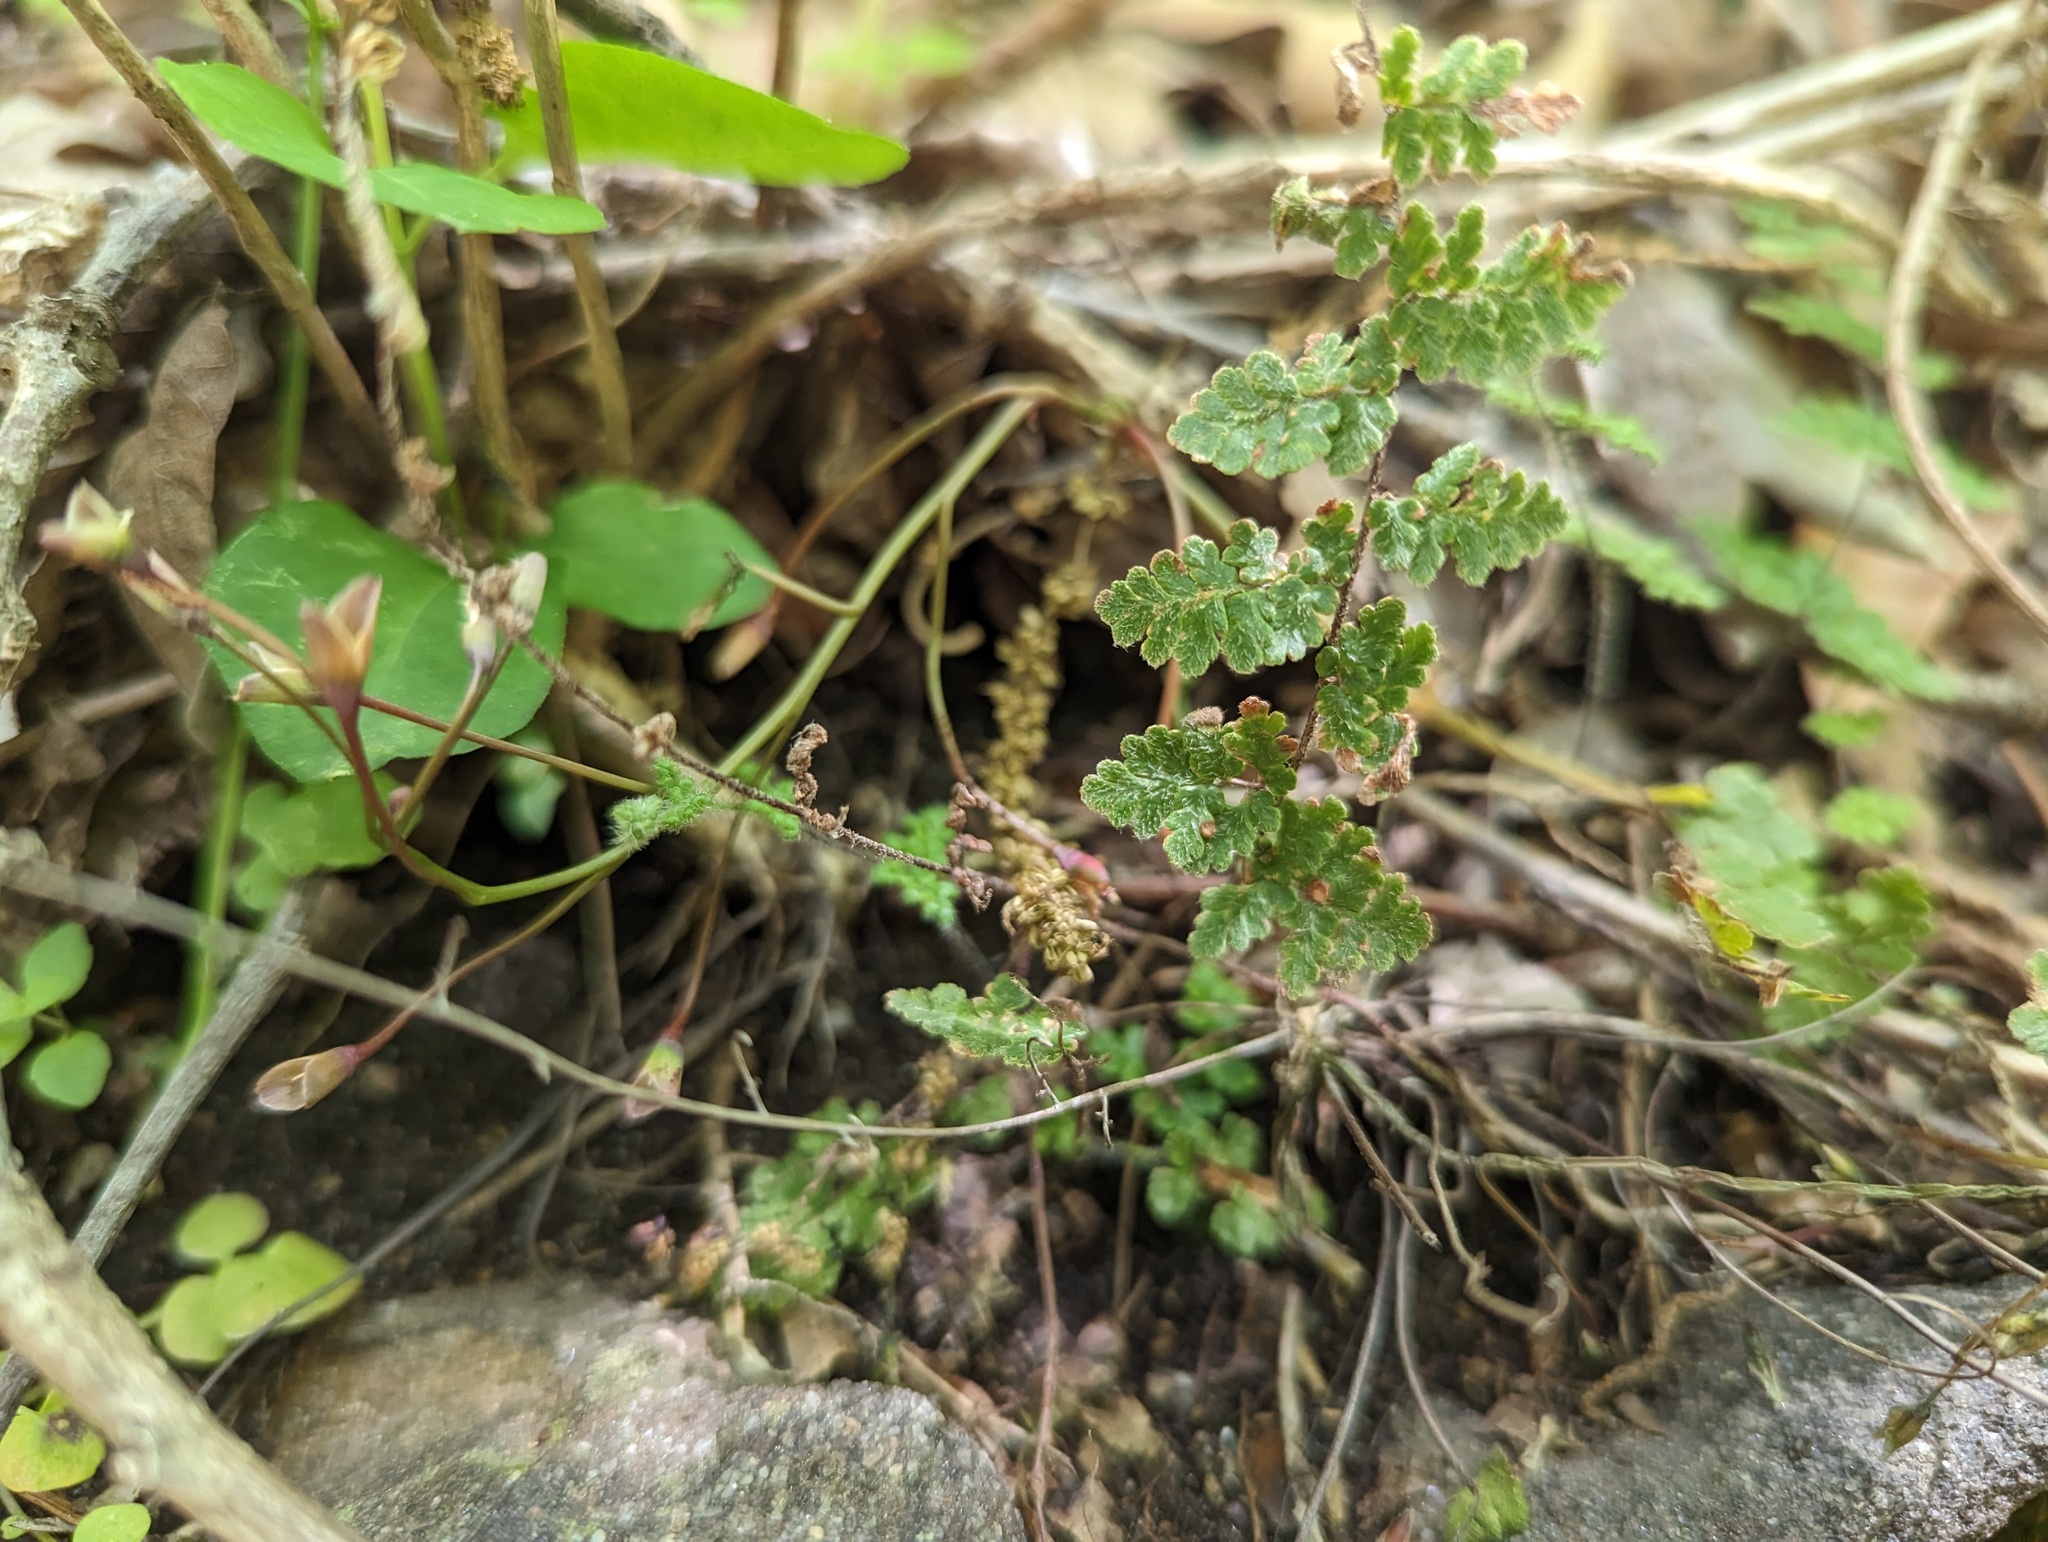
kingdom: Plantae
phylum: Tracheophyta
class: Polypodiopsida
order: Polypodiales
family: Pteridaceae
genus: Myriopteris
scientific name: Myriopteris lanosa
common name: Hairy lip fern
